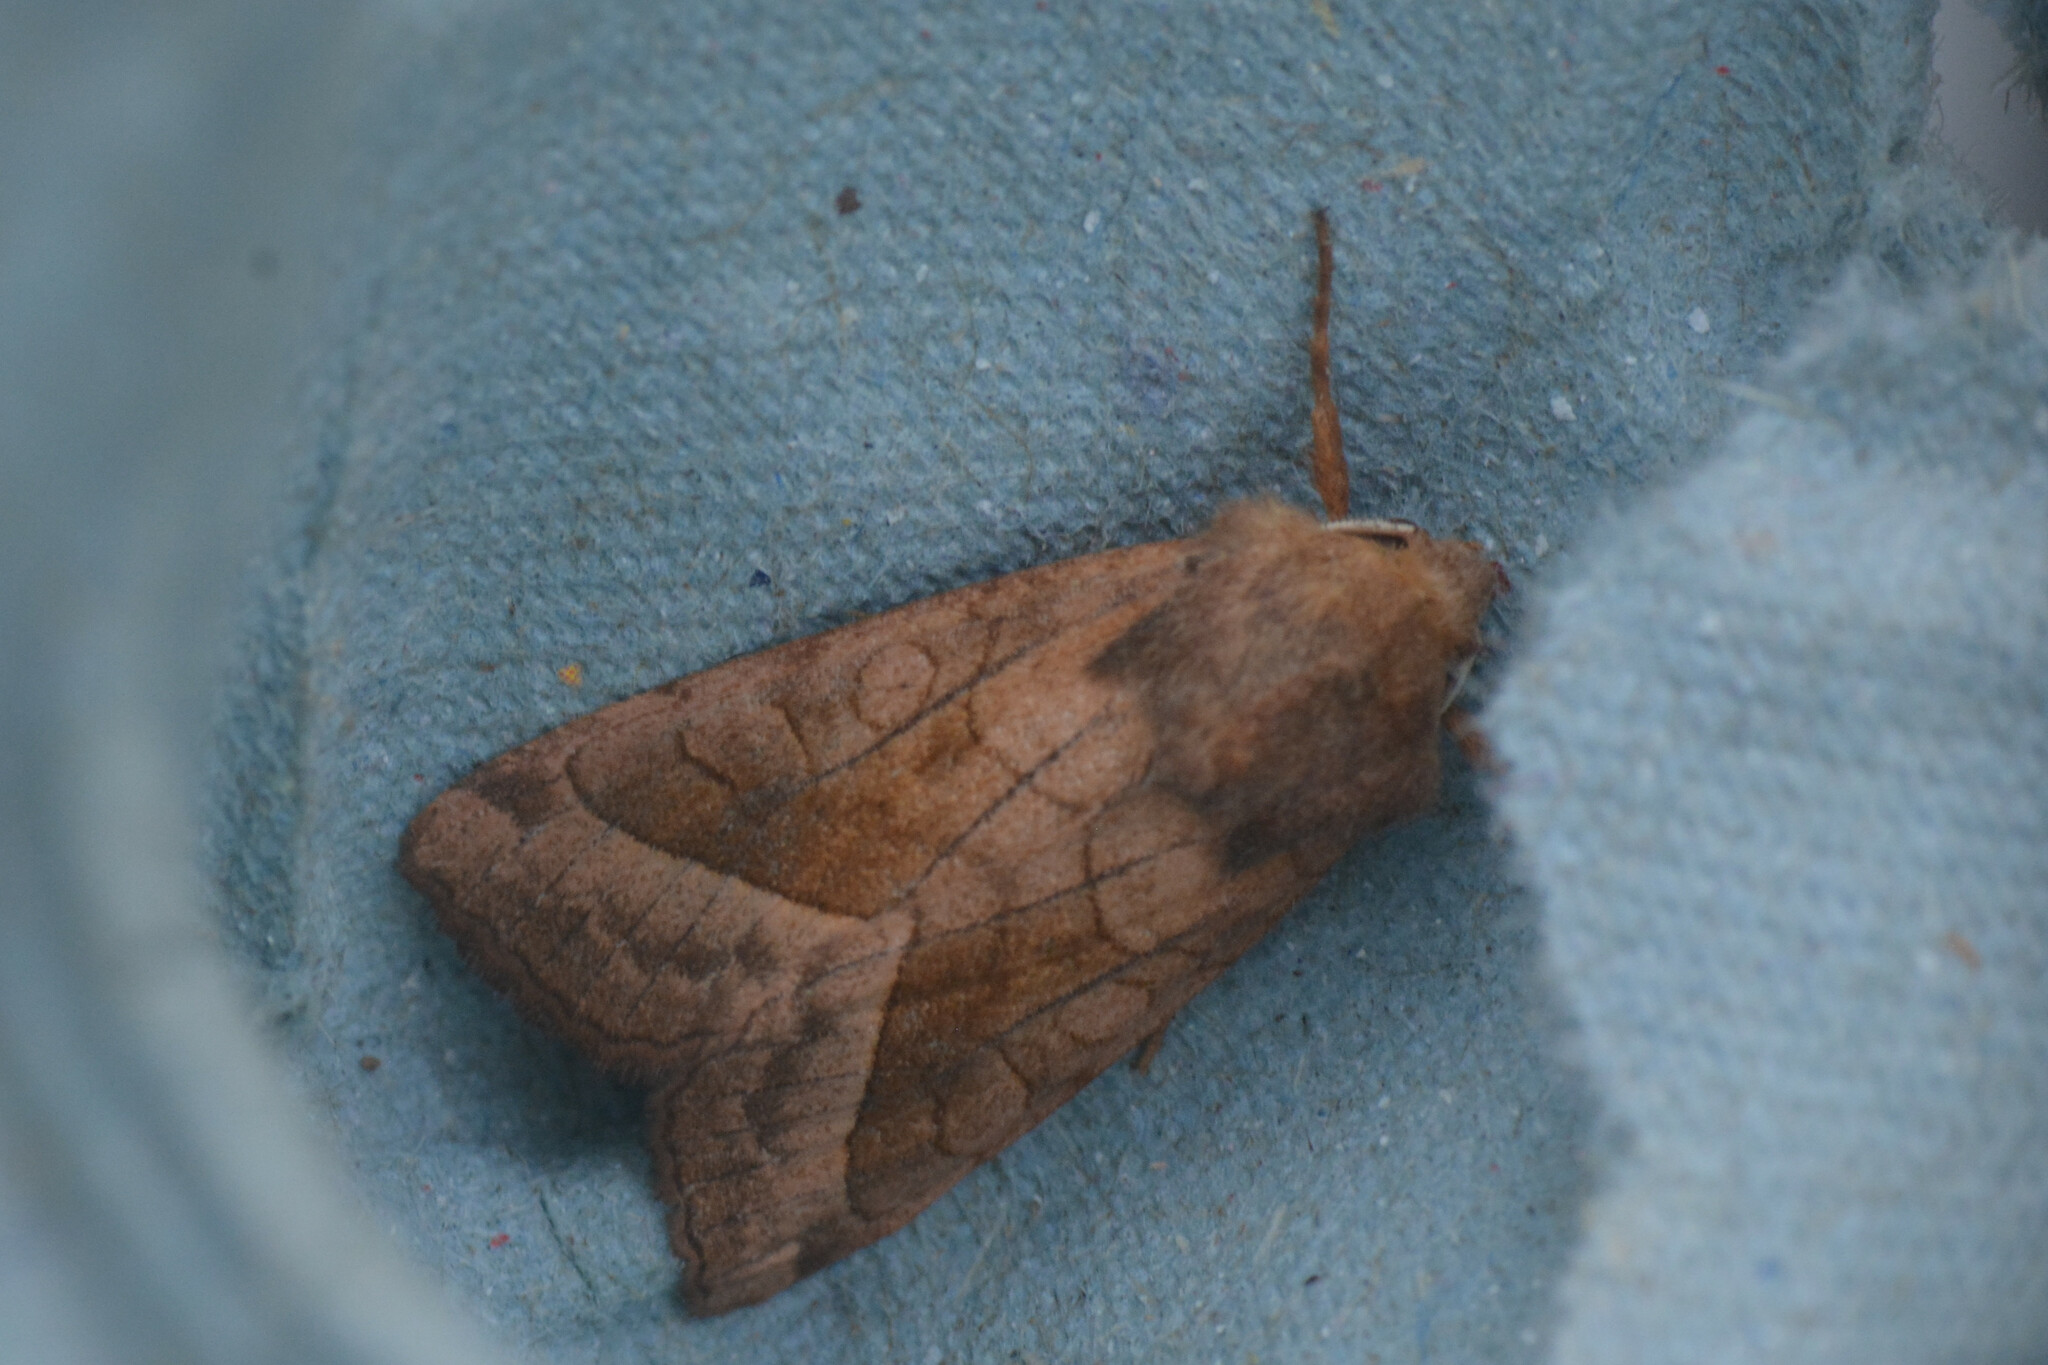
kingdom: Animalia
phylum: Arthropoda
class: Insecta
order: Lepidoptera
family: Noctuidae
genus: Hydraecia
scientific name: Hydraecia micacea
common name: Rosy rustic
